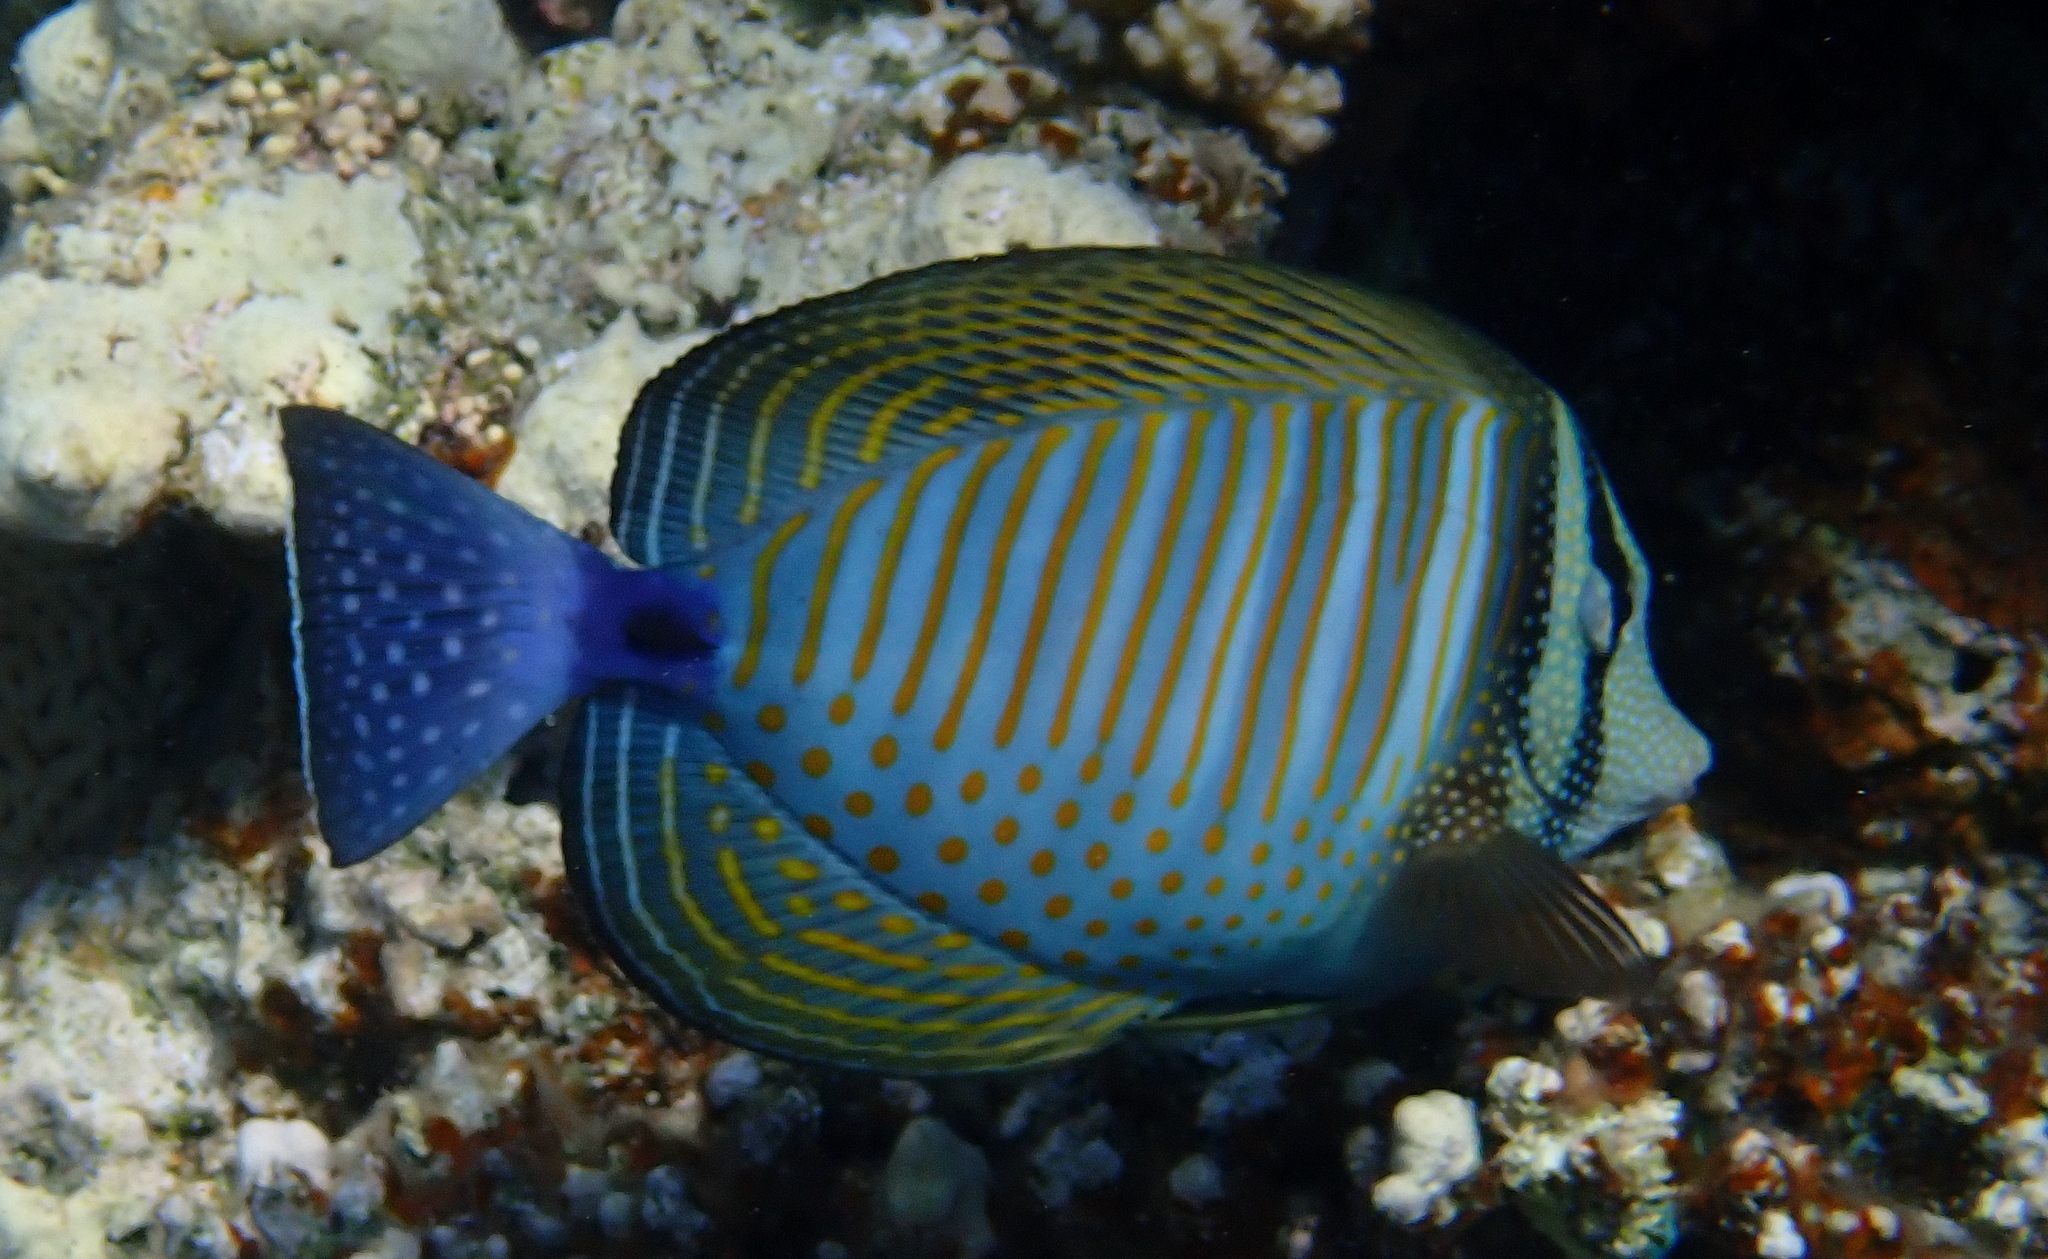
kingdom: Animalia
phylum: Chordata
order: Perciformes
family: Acanthuridae
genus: Zebrasoma
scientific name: Zebrasoma desjardinii
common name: Desjardin's sailfin tang
